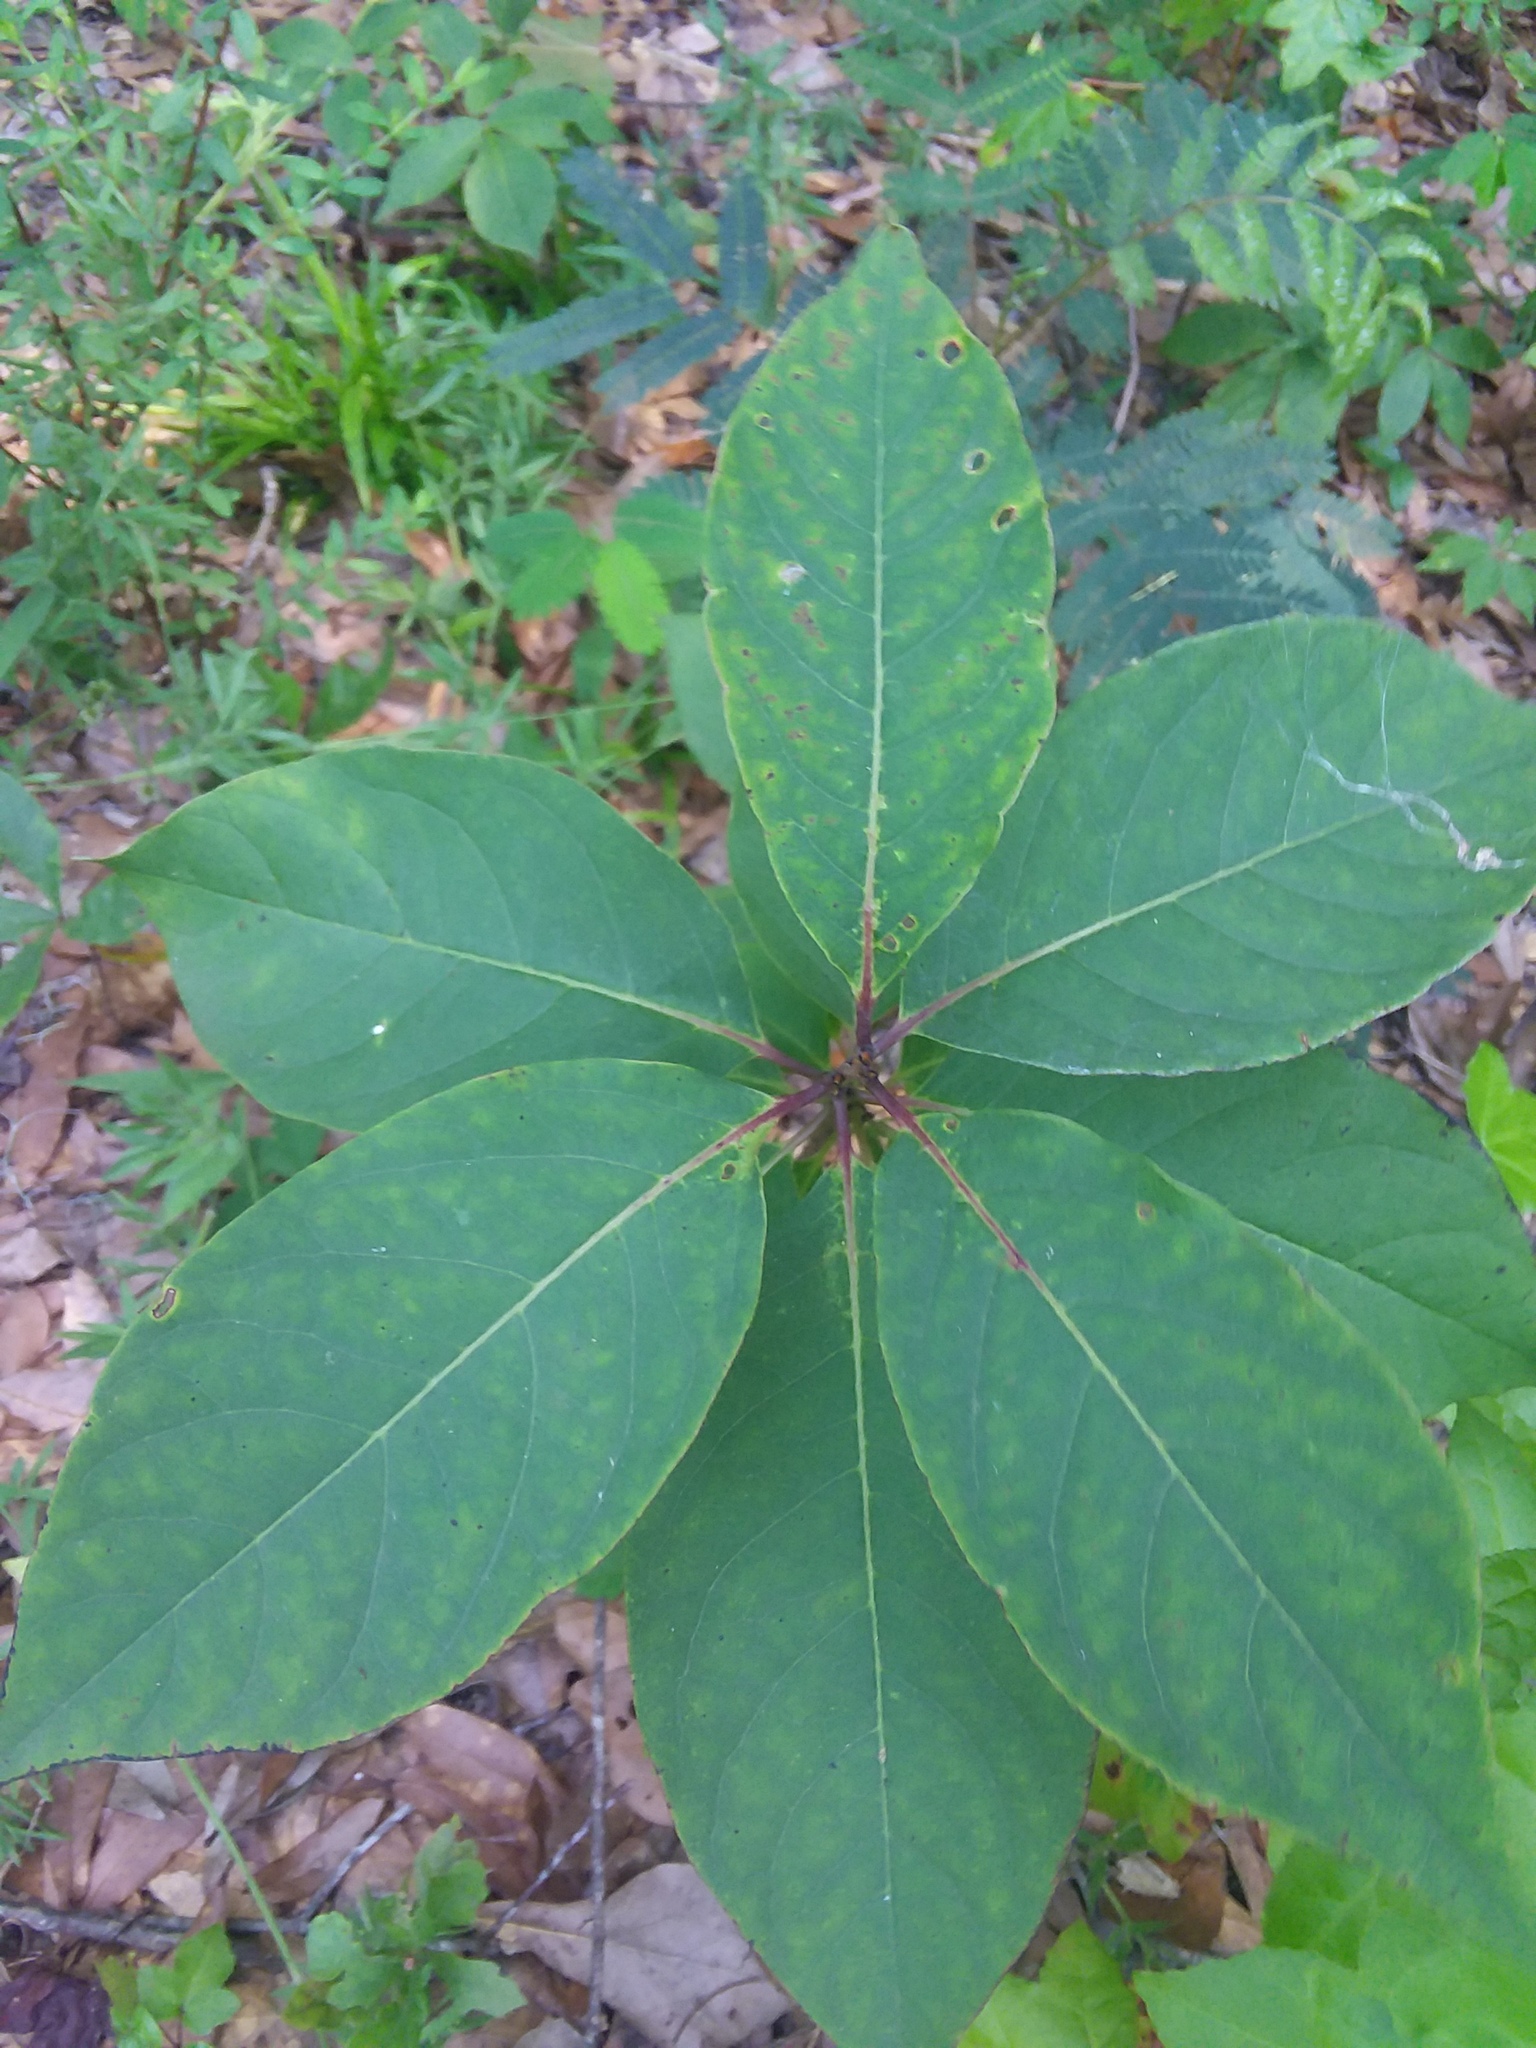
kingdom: Plantae
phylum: Tracheophyta
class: Magnoliopsida
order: Ericales
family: Ebenaceae
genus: Diospyros
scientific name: Diospyros virginiana
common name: Persimmon
